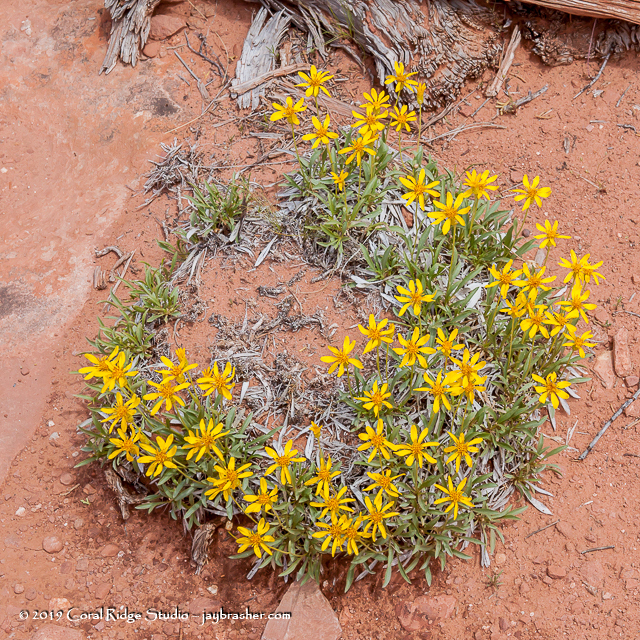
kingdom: Plantae
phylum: Tracheophyta
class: Magnoliopsida
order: Asterales
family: Asteraceae
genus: Stenotus
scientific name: Stenotus armerioides
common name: Thrifty goldenweed
